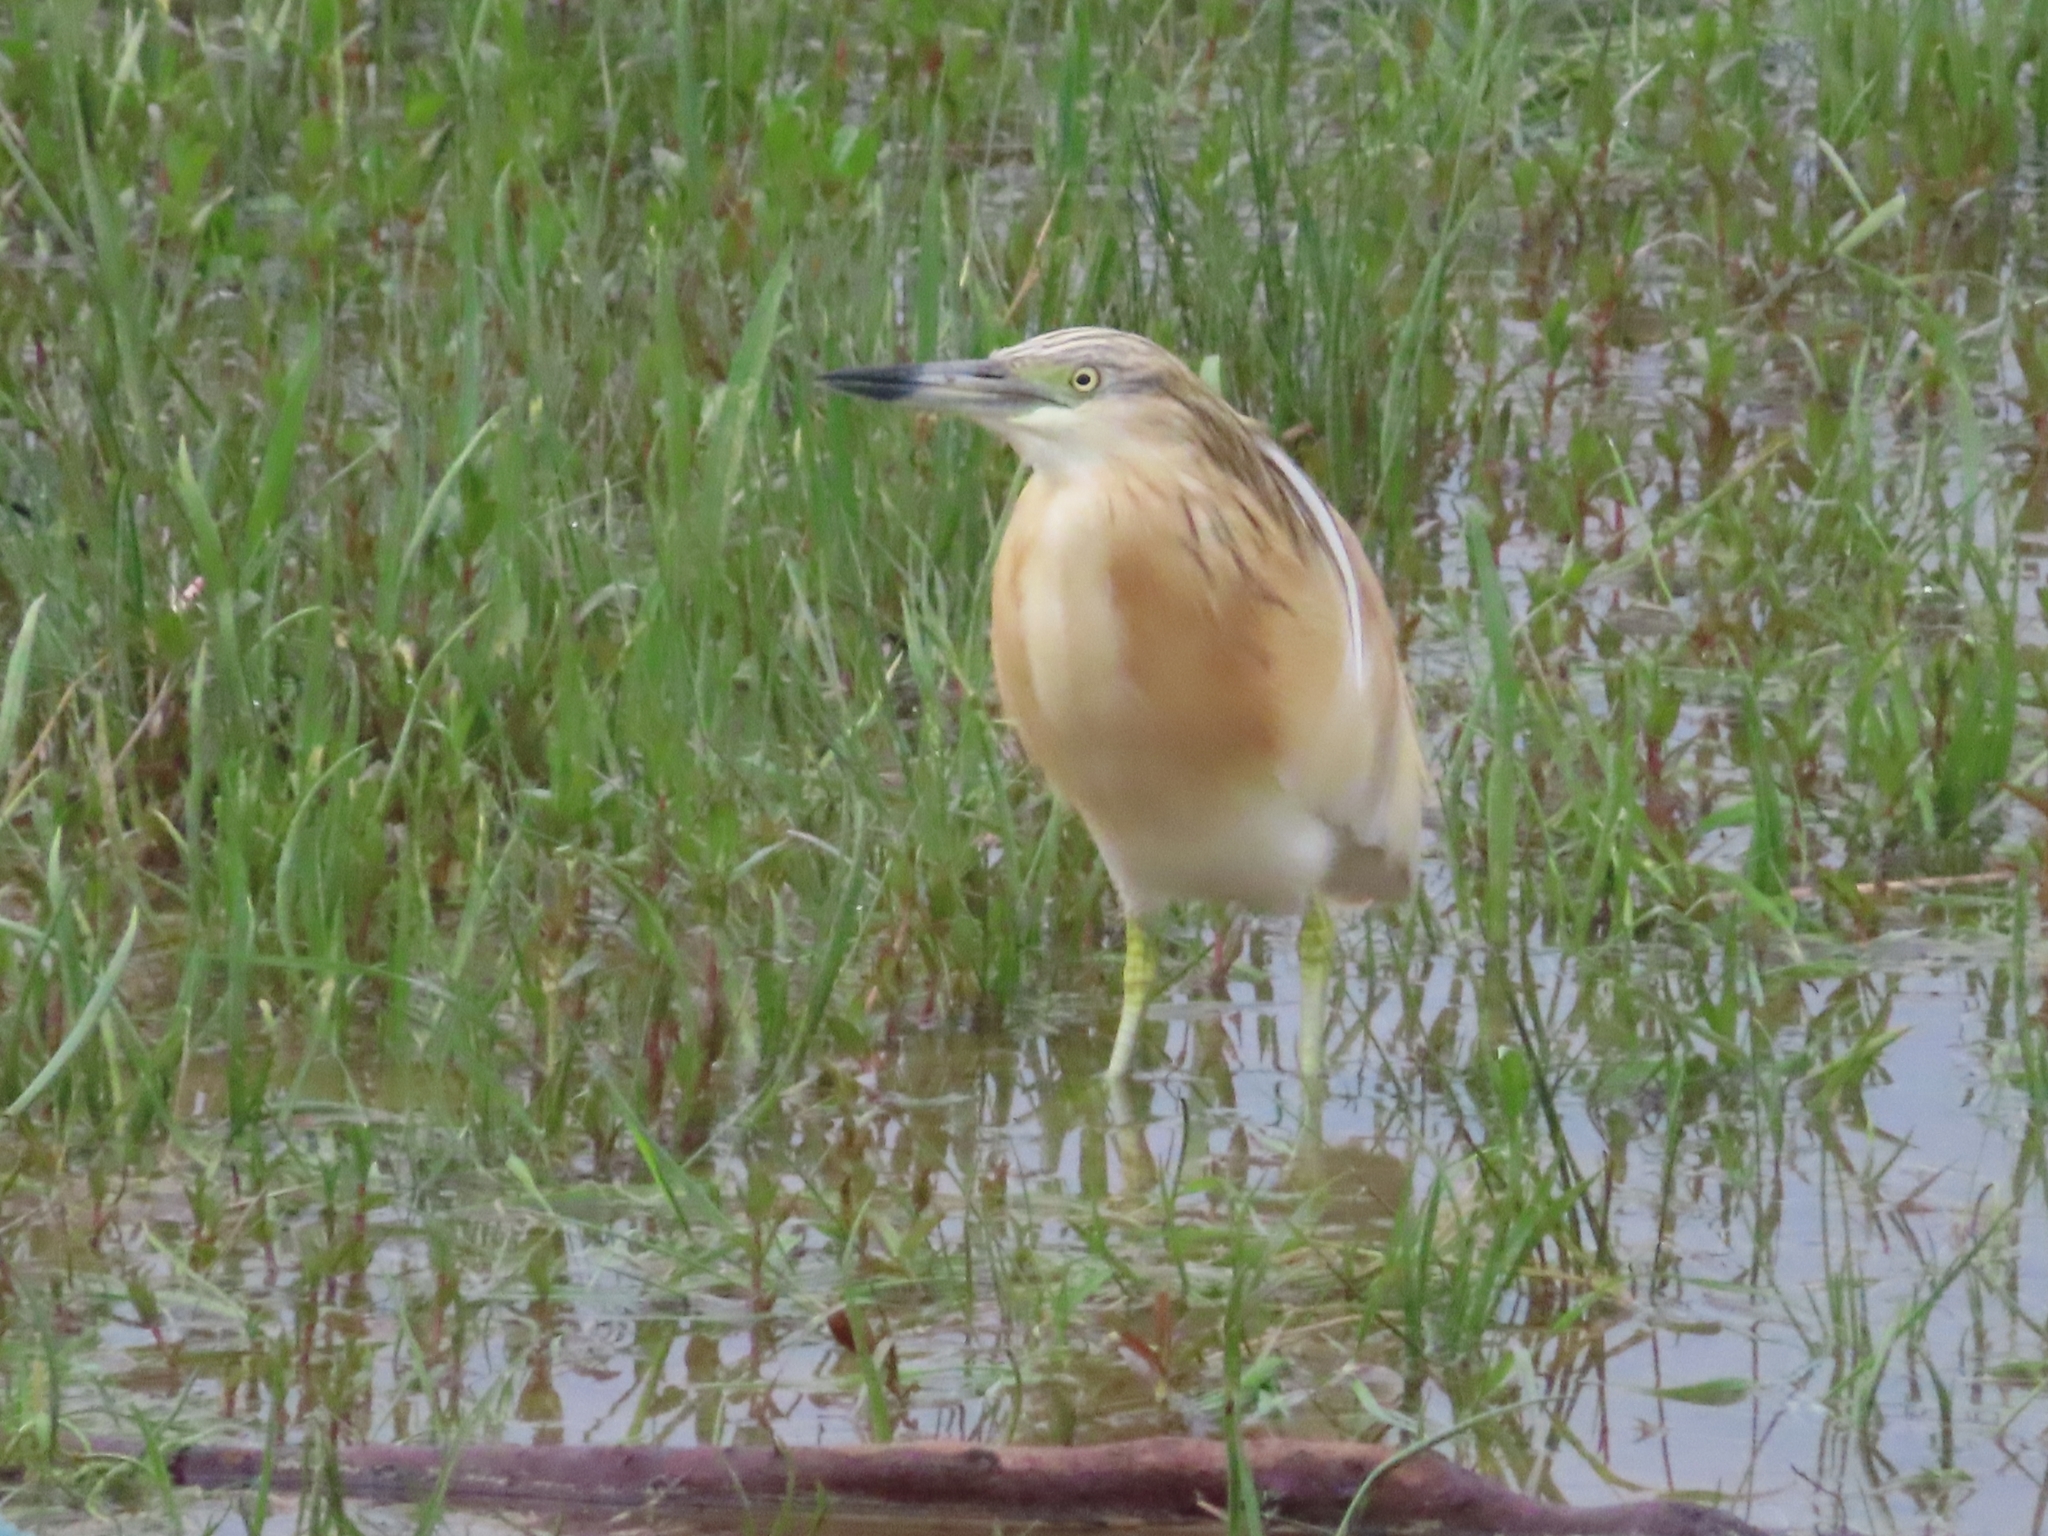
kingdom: Animalia
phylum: Chordata
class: Aves
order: Pelecaniformes
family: Ardeidae
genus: Ardeola
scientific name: Ardeola ralloides
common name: Squacco heron
